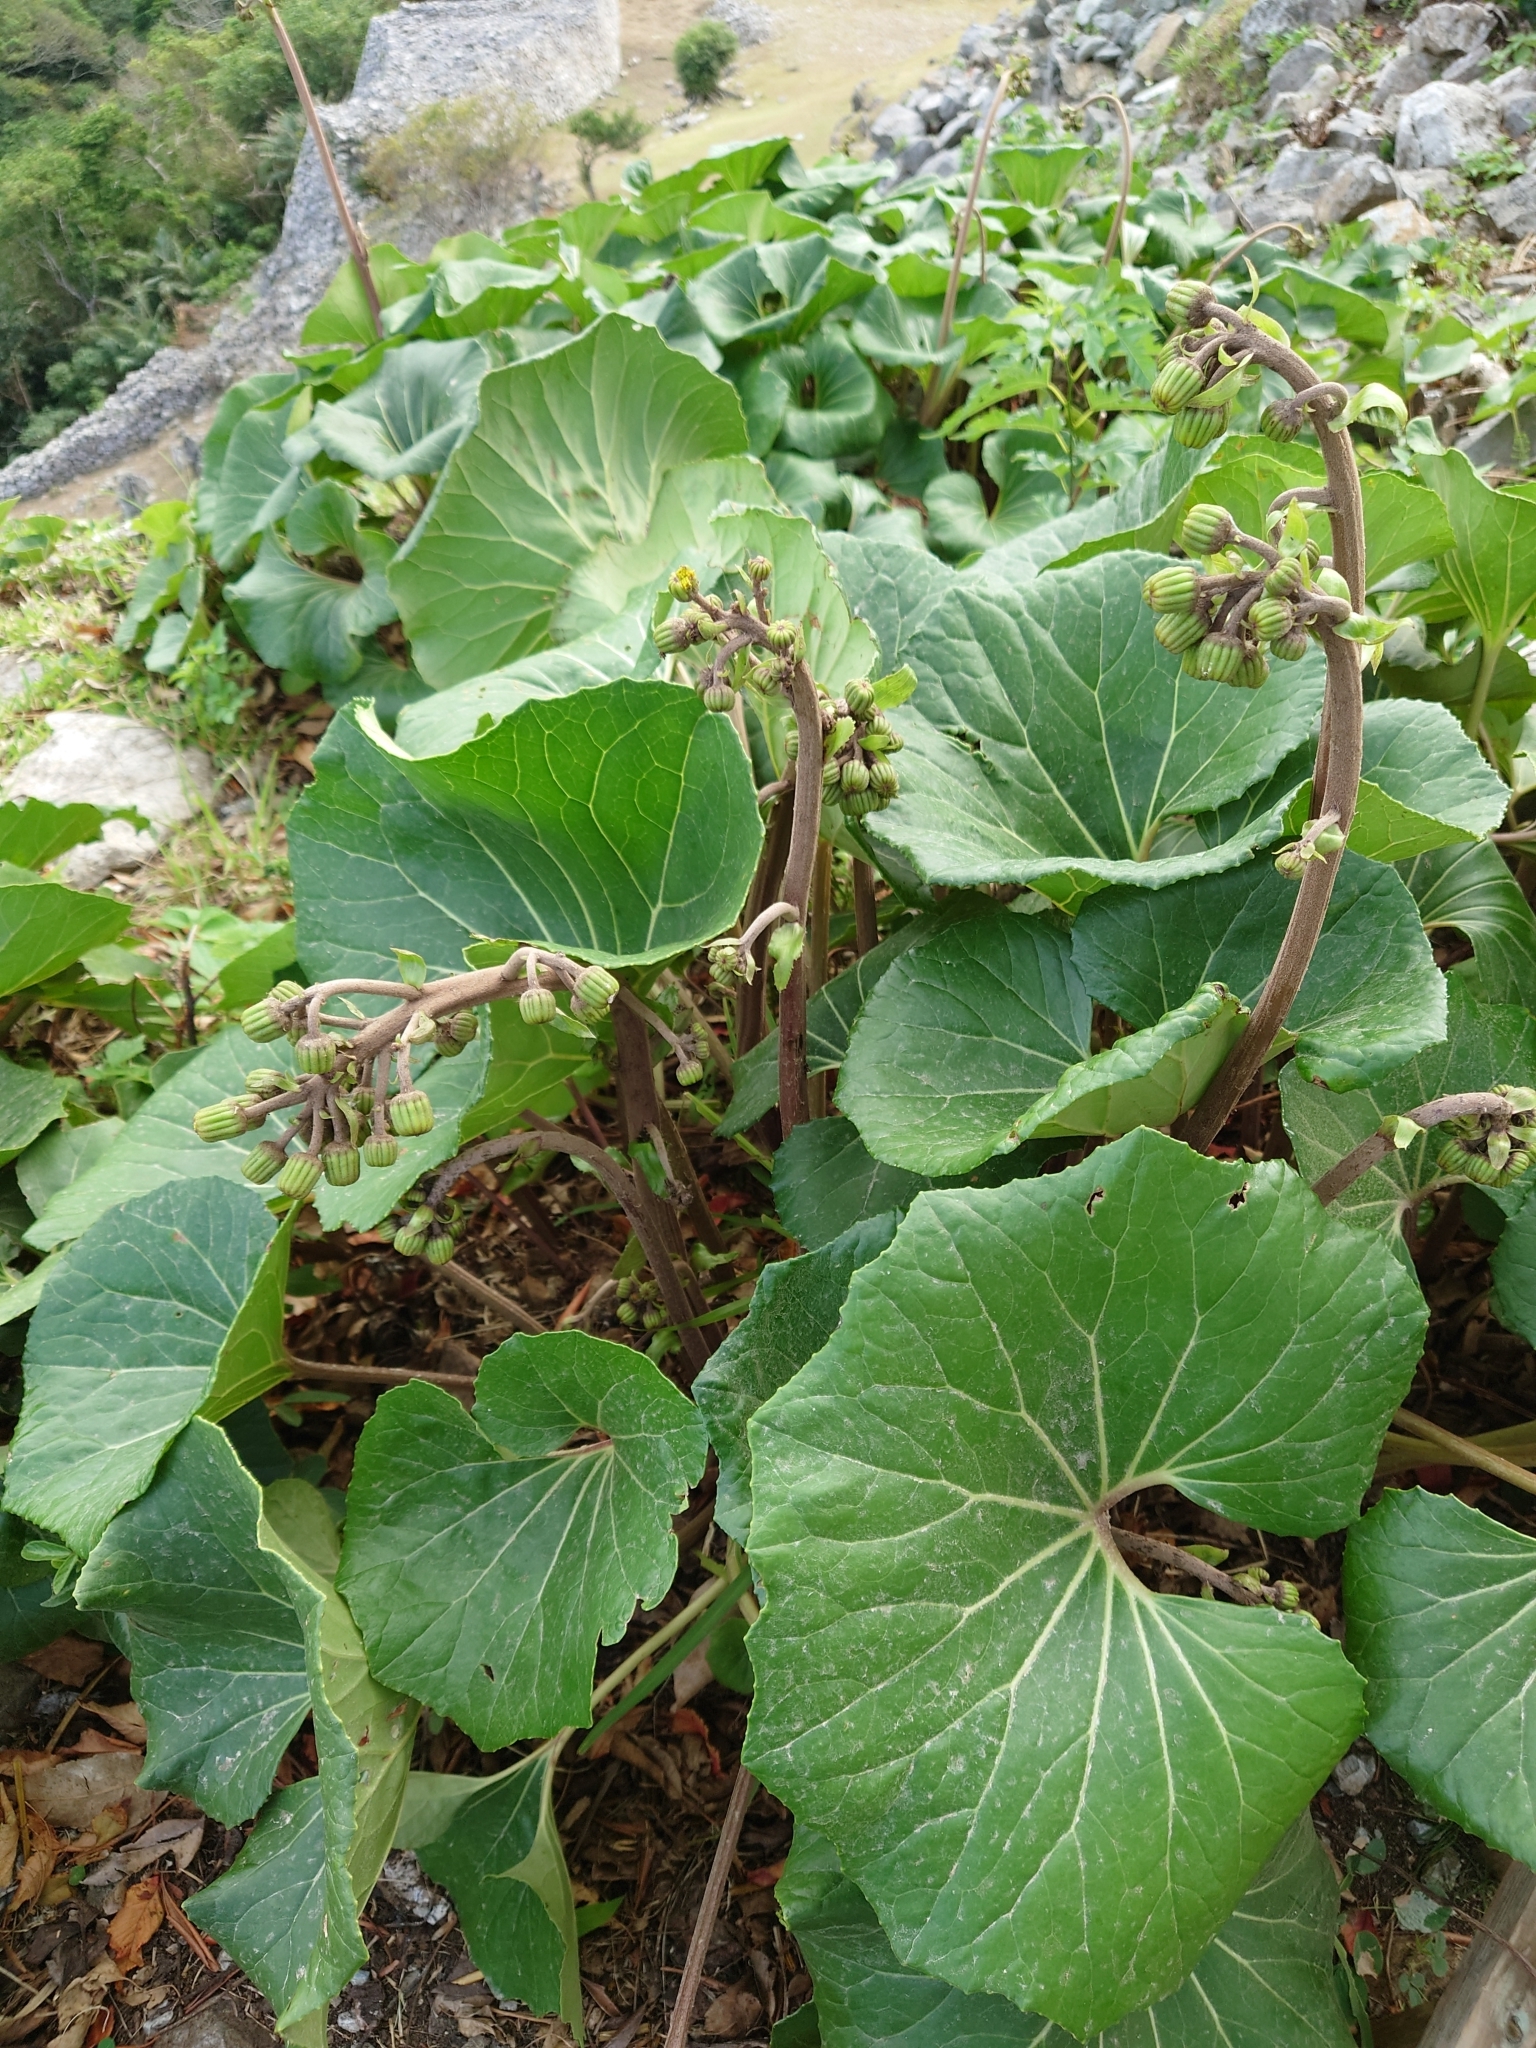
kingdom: Plantae
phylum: Tracheophyta
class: Magnoliopsida
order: Asterales
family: Asteraceae
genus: Farfugium
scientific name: Farfugium japonicum
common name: Leopardplant
